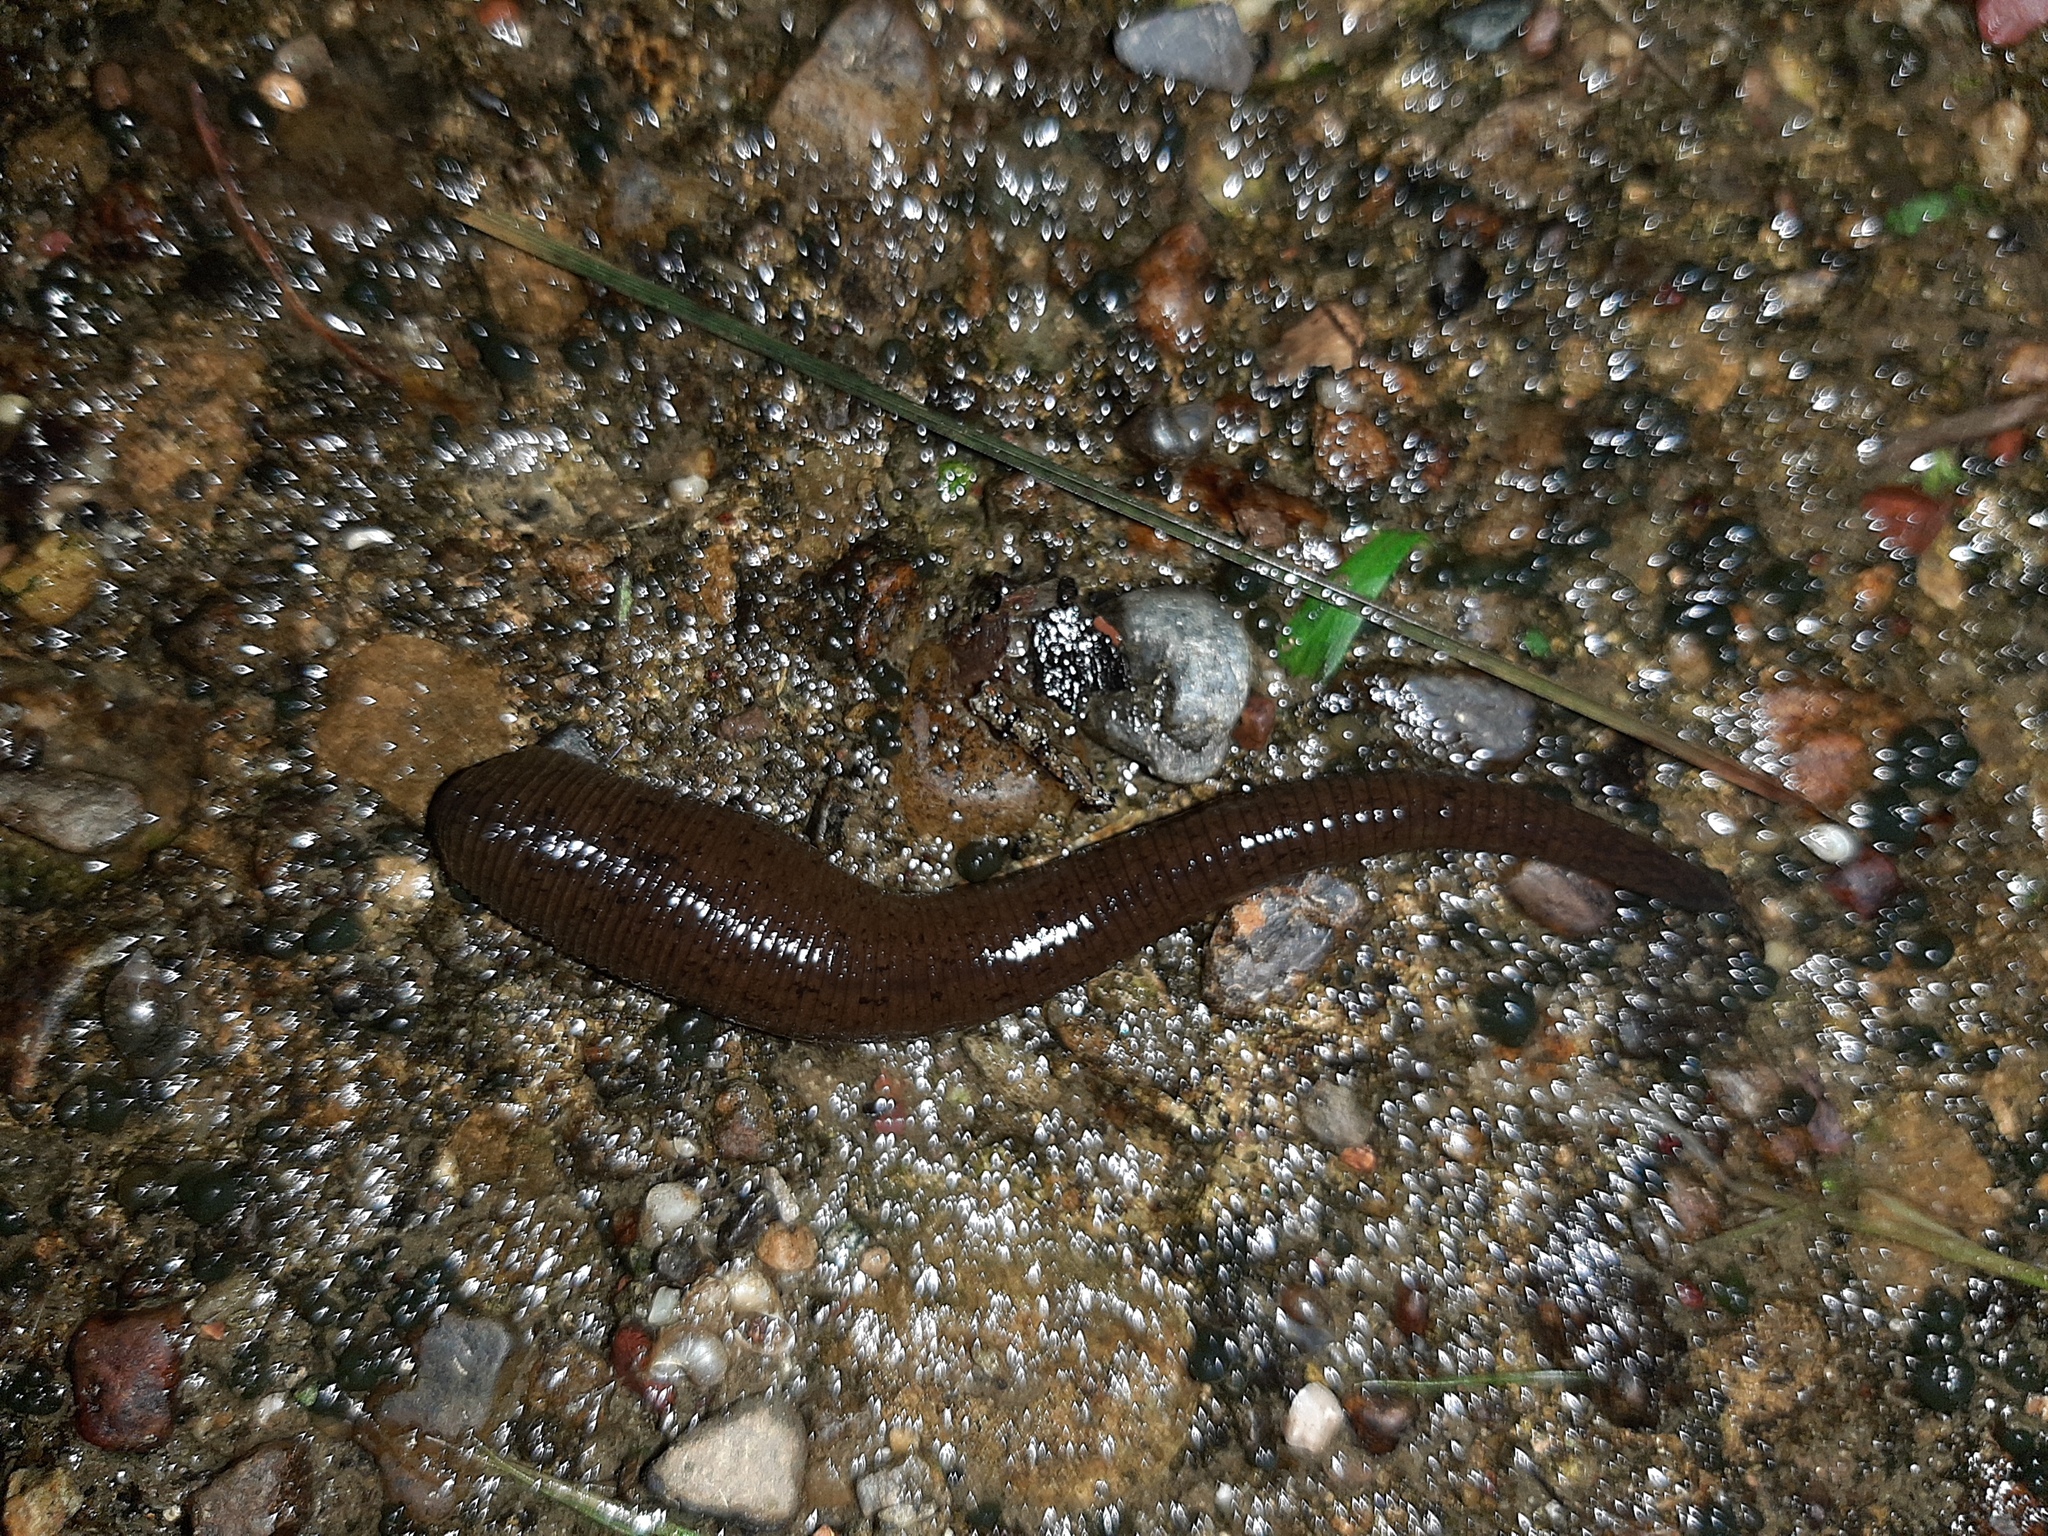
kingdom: Animalia
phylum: Annelida
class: Clitellata
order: Arhynchobdellida
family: Haemopidae
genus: Haemopis
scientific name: Haemopis sanguisuga
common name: Horse leech
